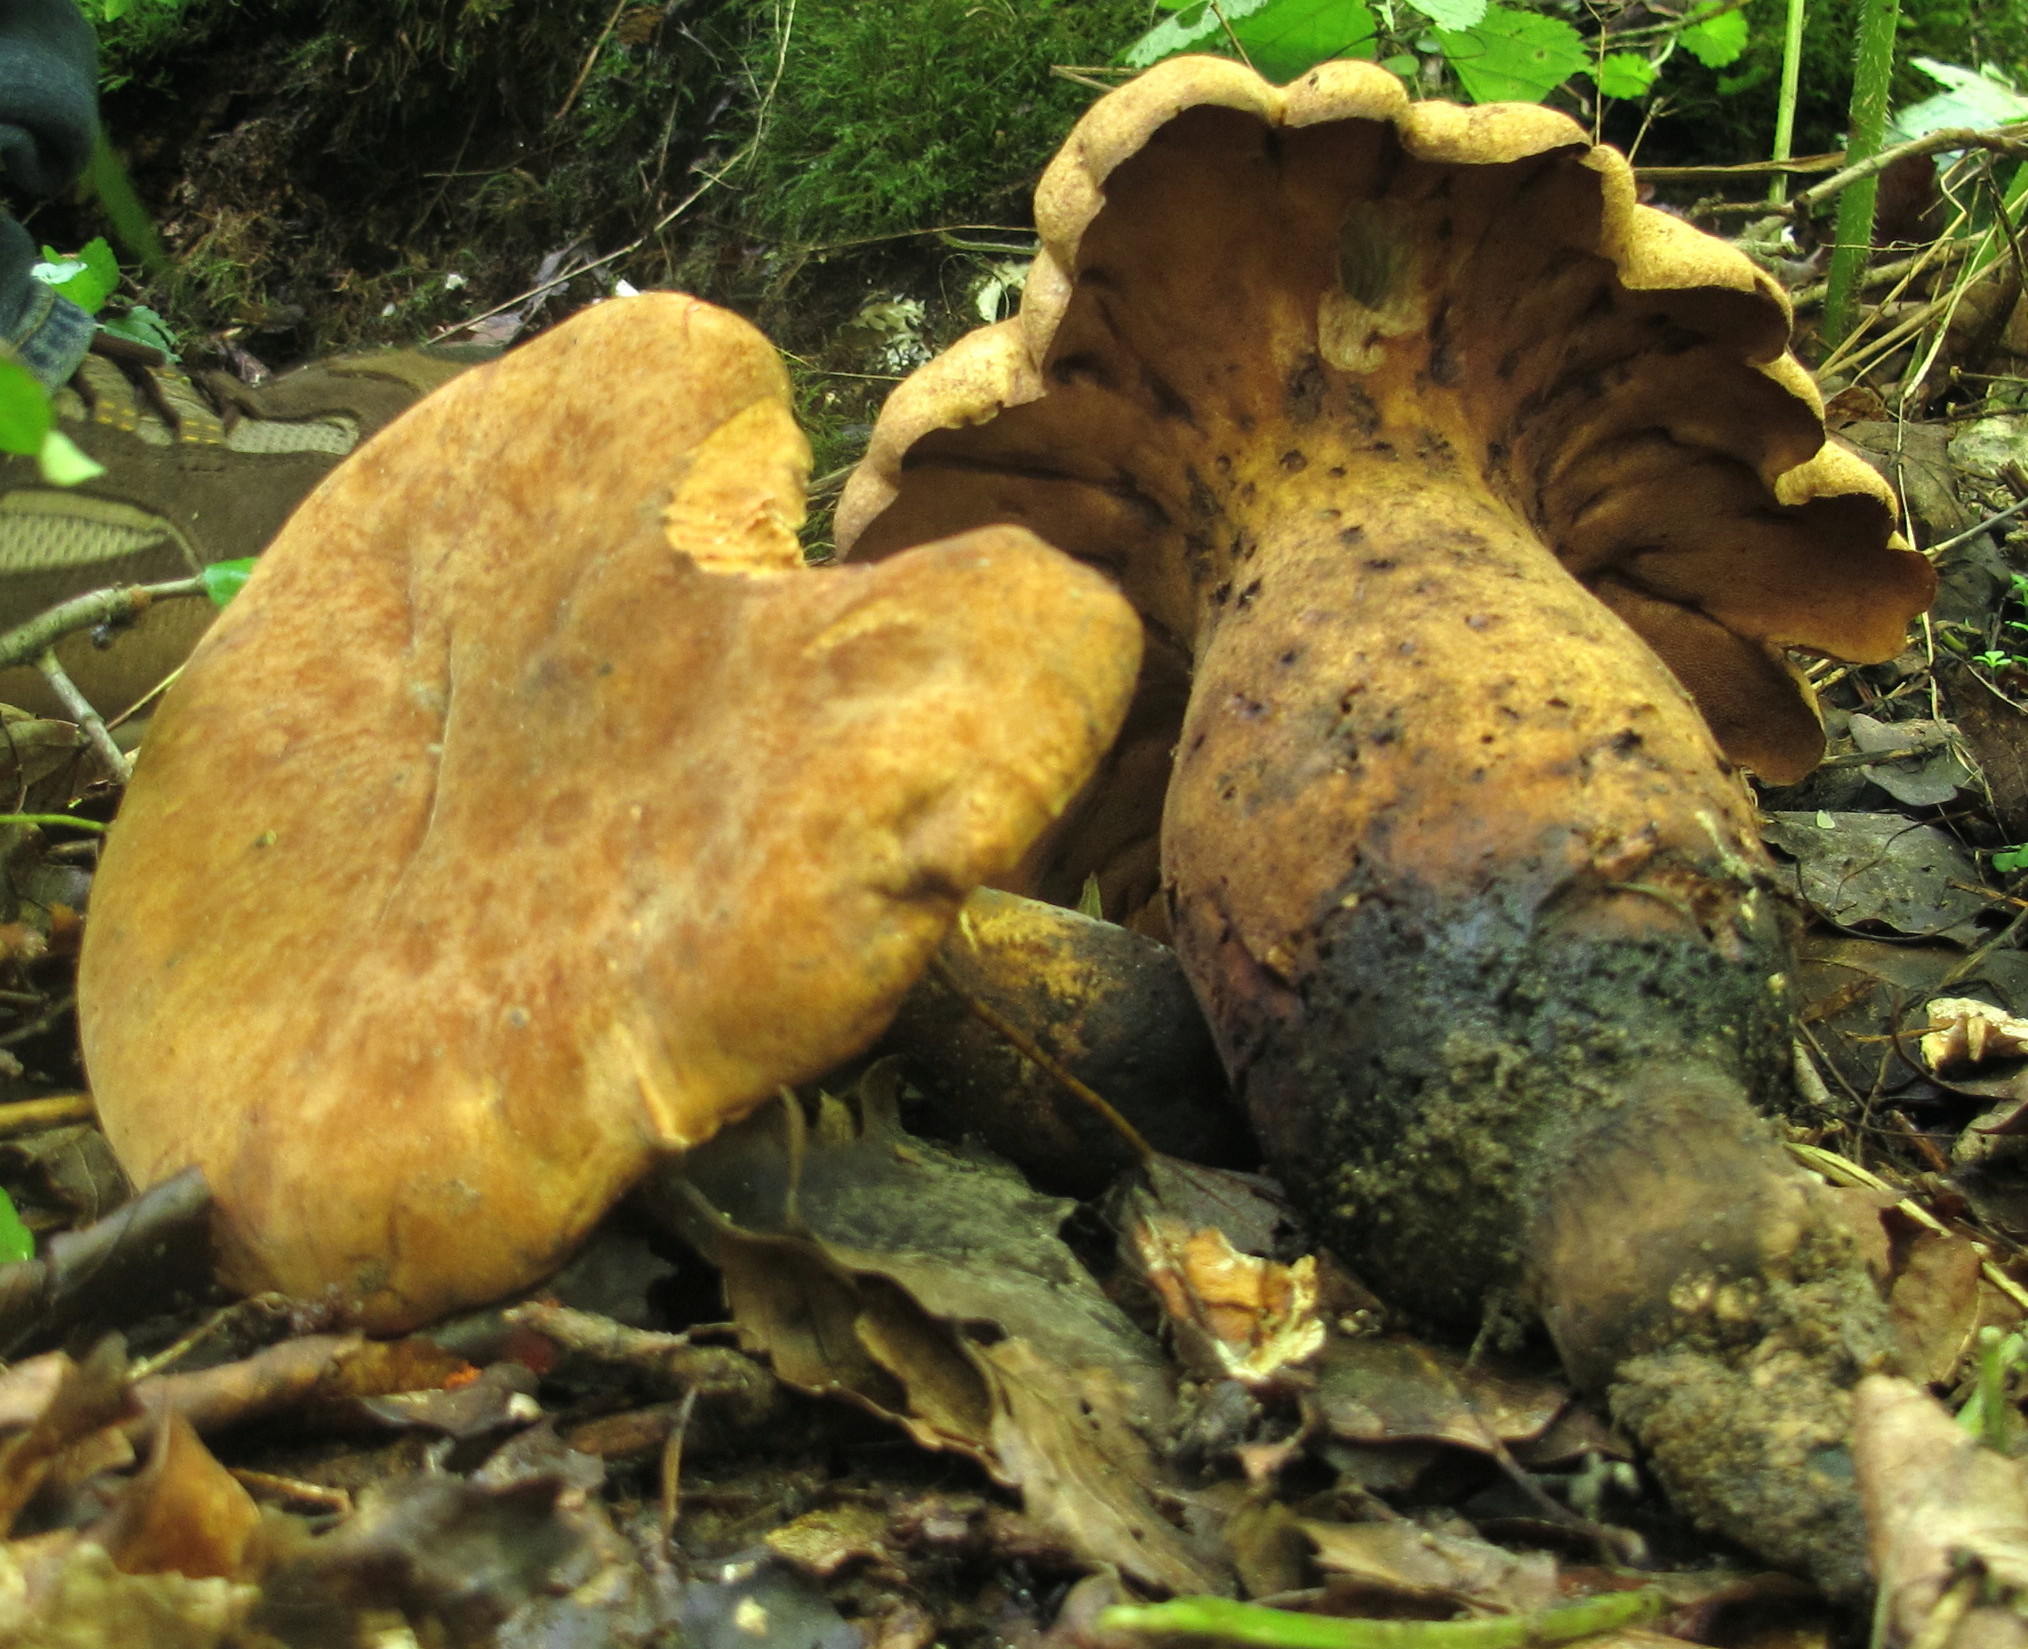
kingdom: Fungi
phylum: Basidiomycota
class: Agaricomycetes
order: Polyporales
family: Polyporaceae
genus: Polyporus
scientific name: Polyporus radicatus
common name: Rooting polypore
